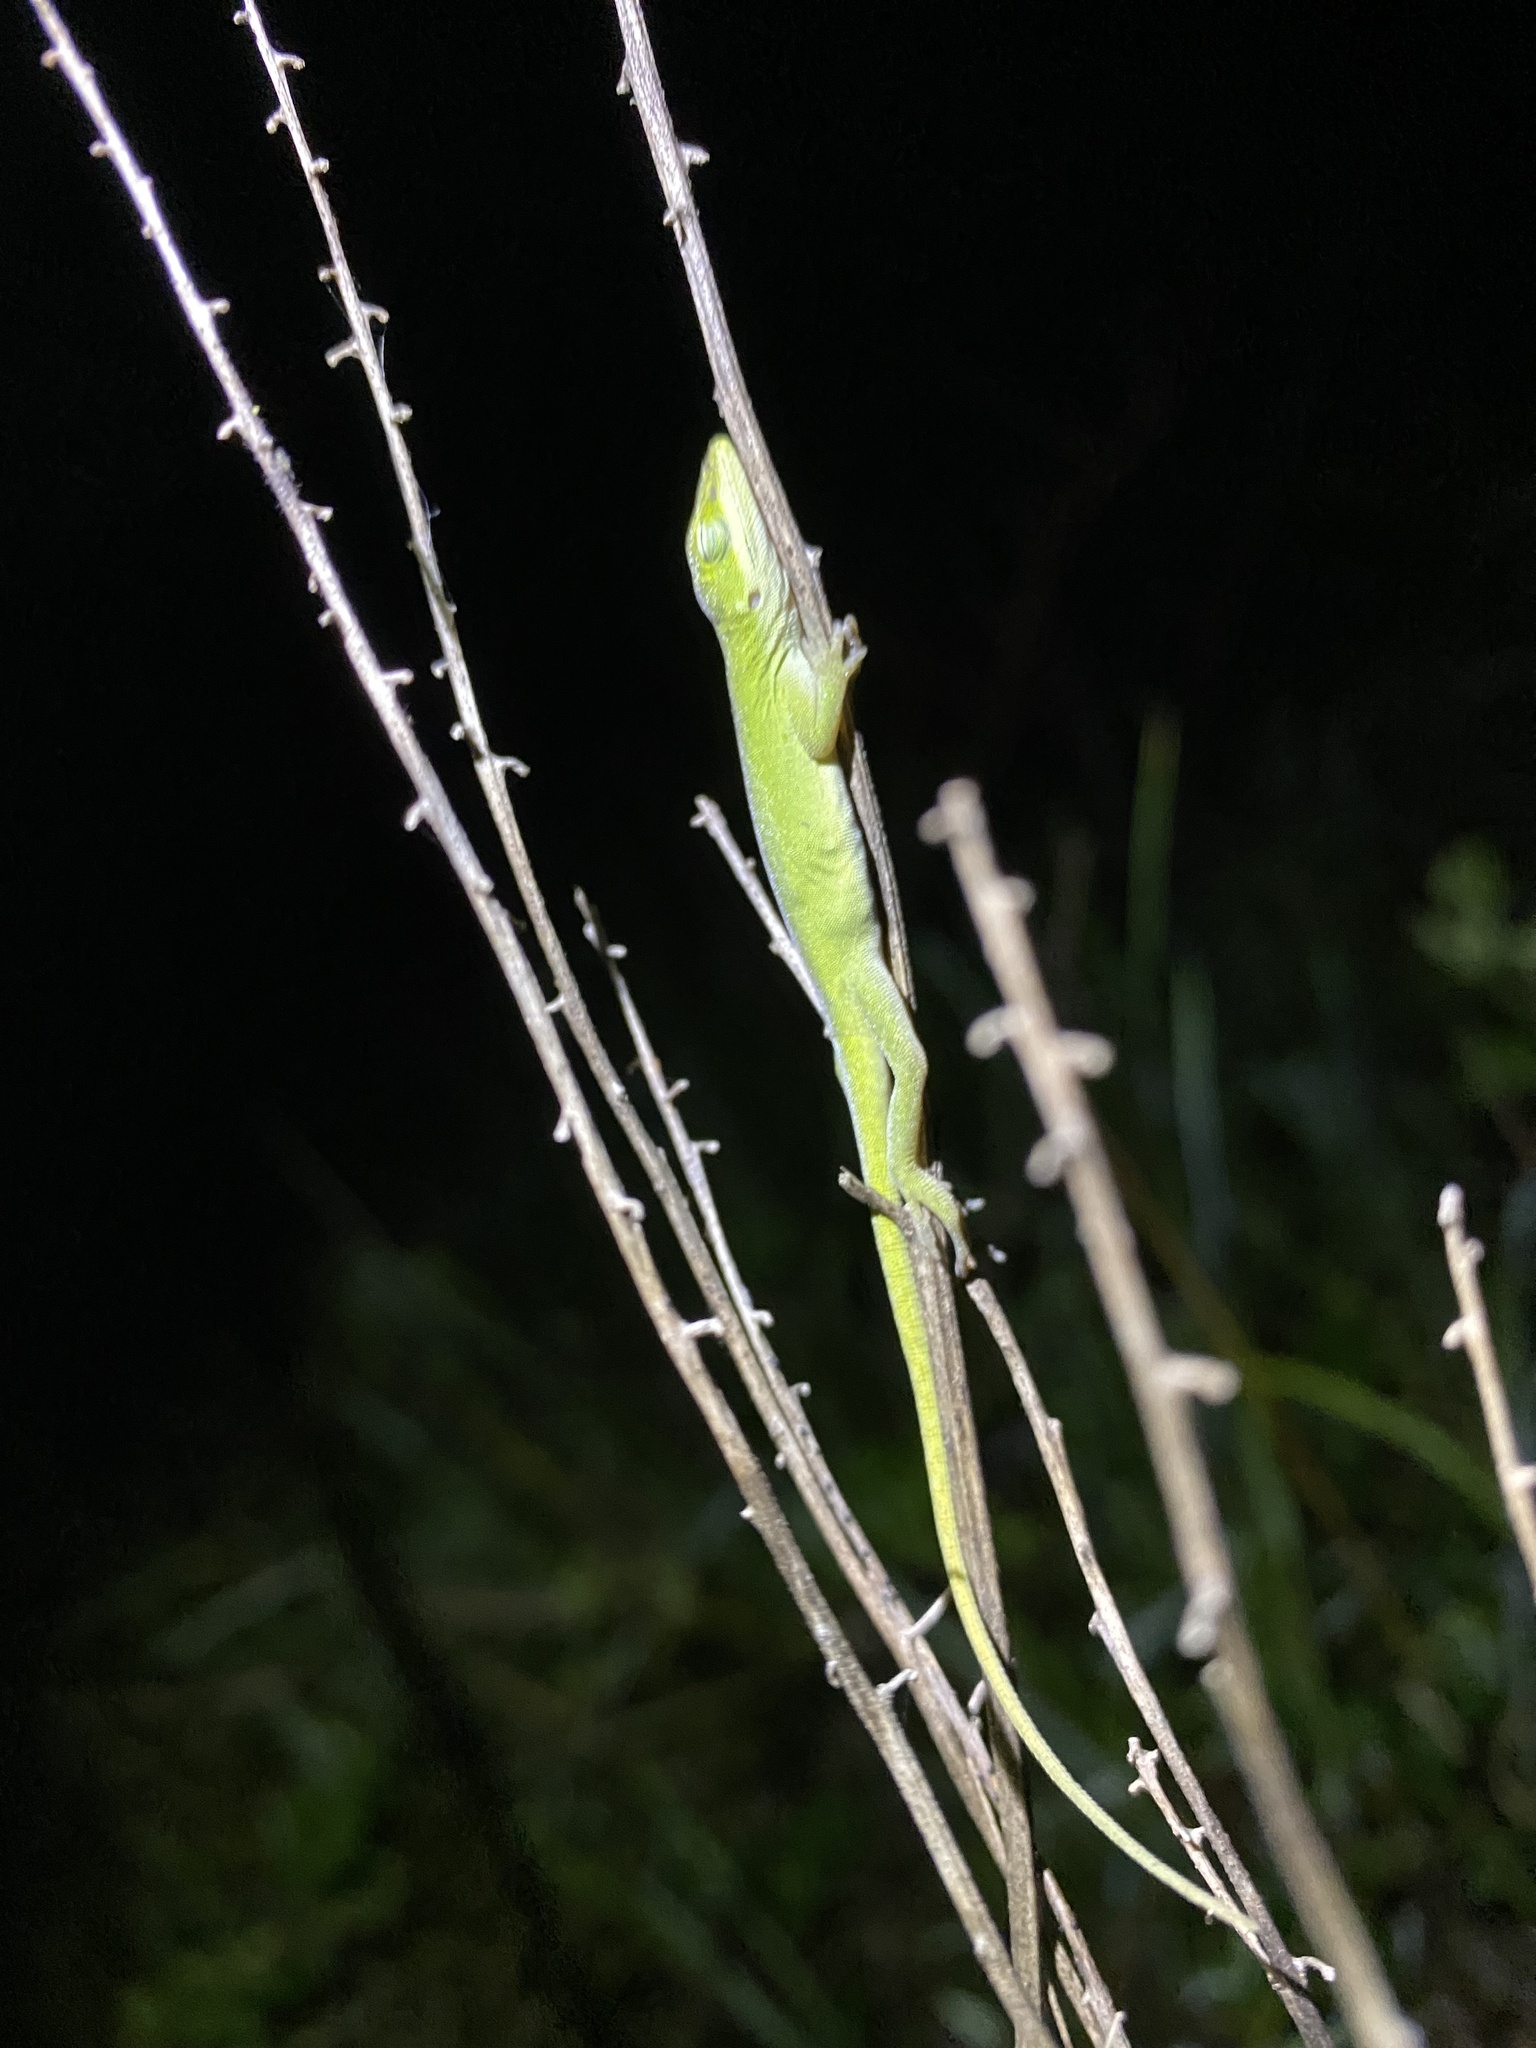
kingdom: Animalia
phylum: Chordata
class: Squamata
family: Dactyloidae
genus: Anolis
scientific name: Anolis carolinensis
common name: Green anole
